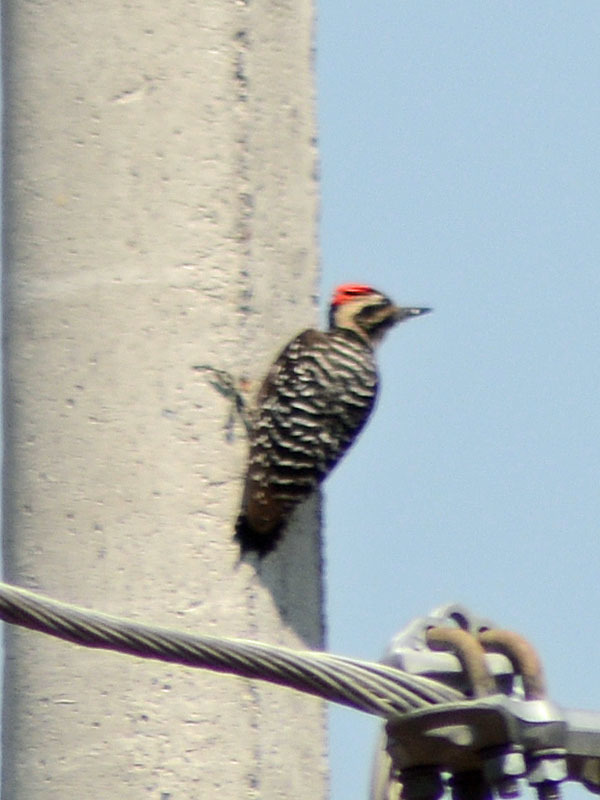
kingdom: Animalia
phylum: Chordata
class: Aves
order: Piciformes
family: Picidae
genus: Dryobates
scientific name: Dryobates scalaris
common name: Ladder-backed woodpecker
